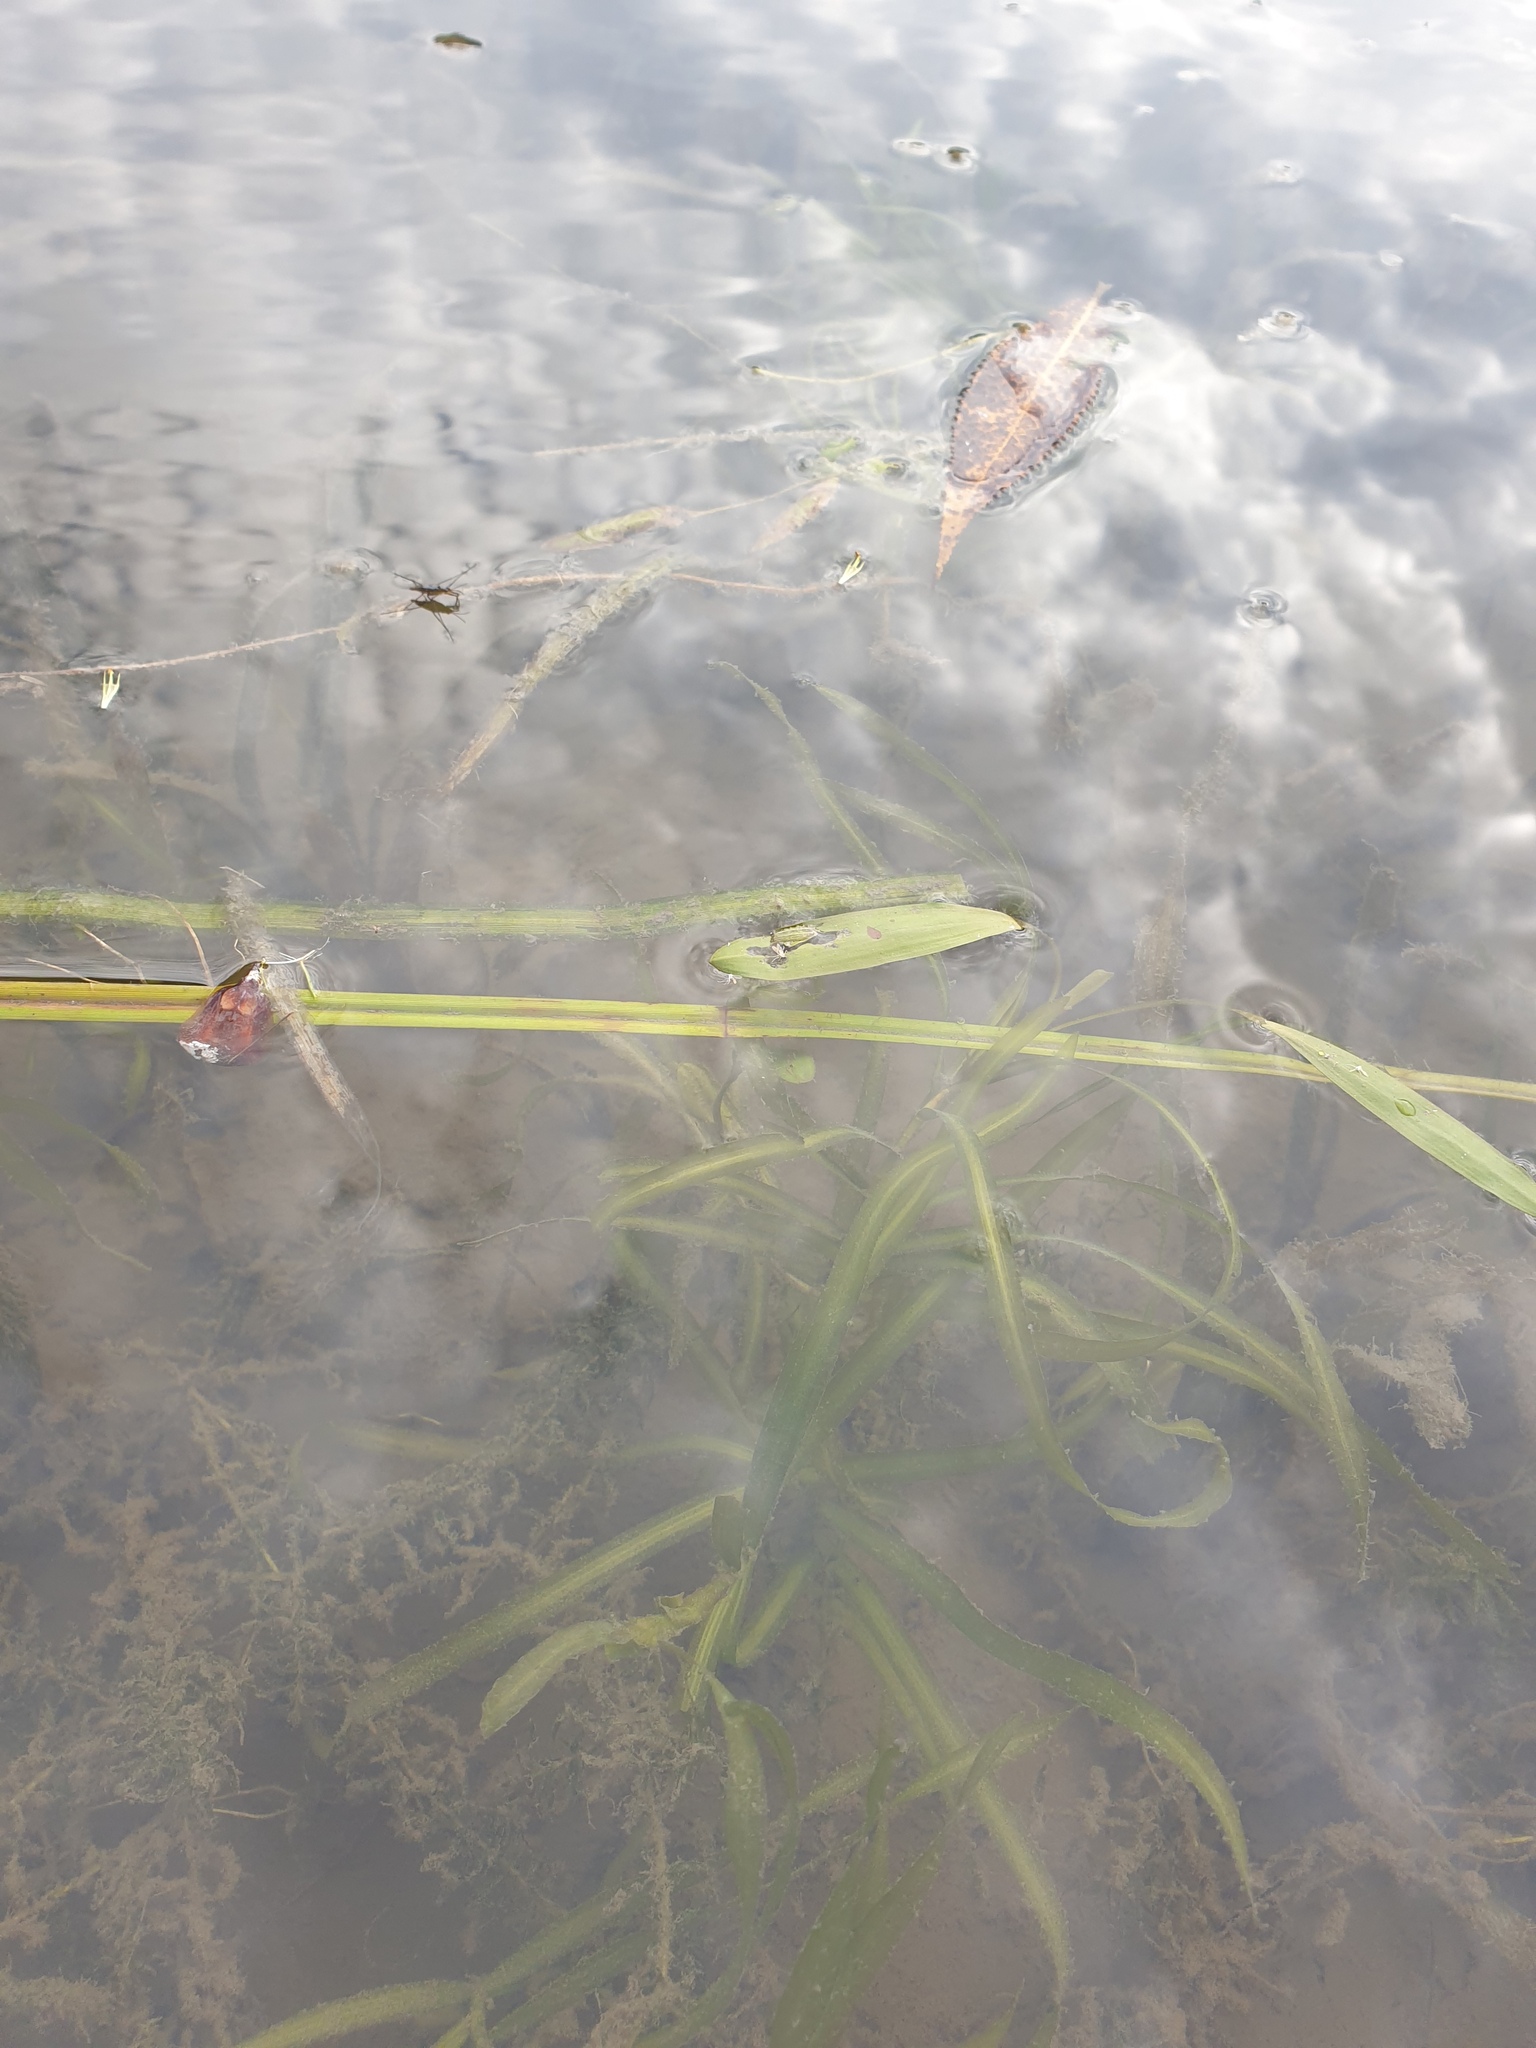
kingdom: Plantae
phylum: Tracheophyta
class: Liliopsida
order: Alismatales
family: Potamogetonaceae
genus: Potamogeton
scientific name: Potamogeton epihydrus
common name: American pondweed
